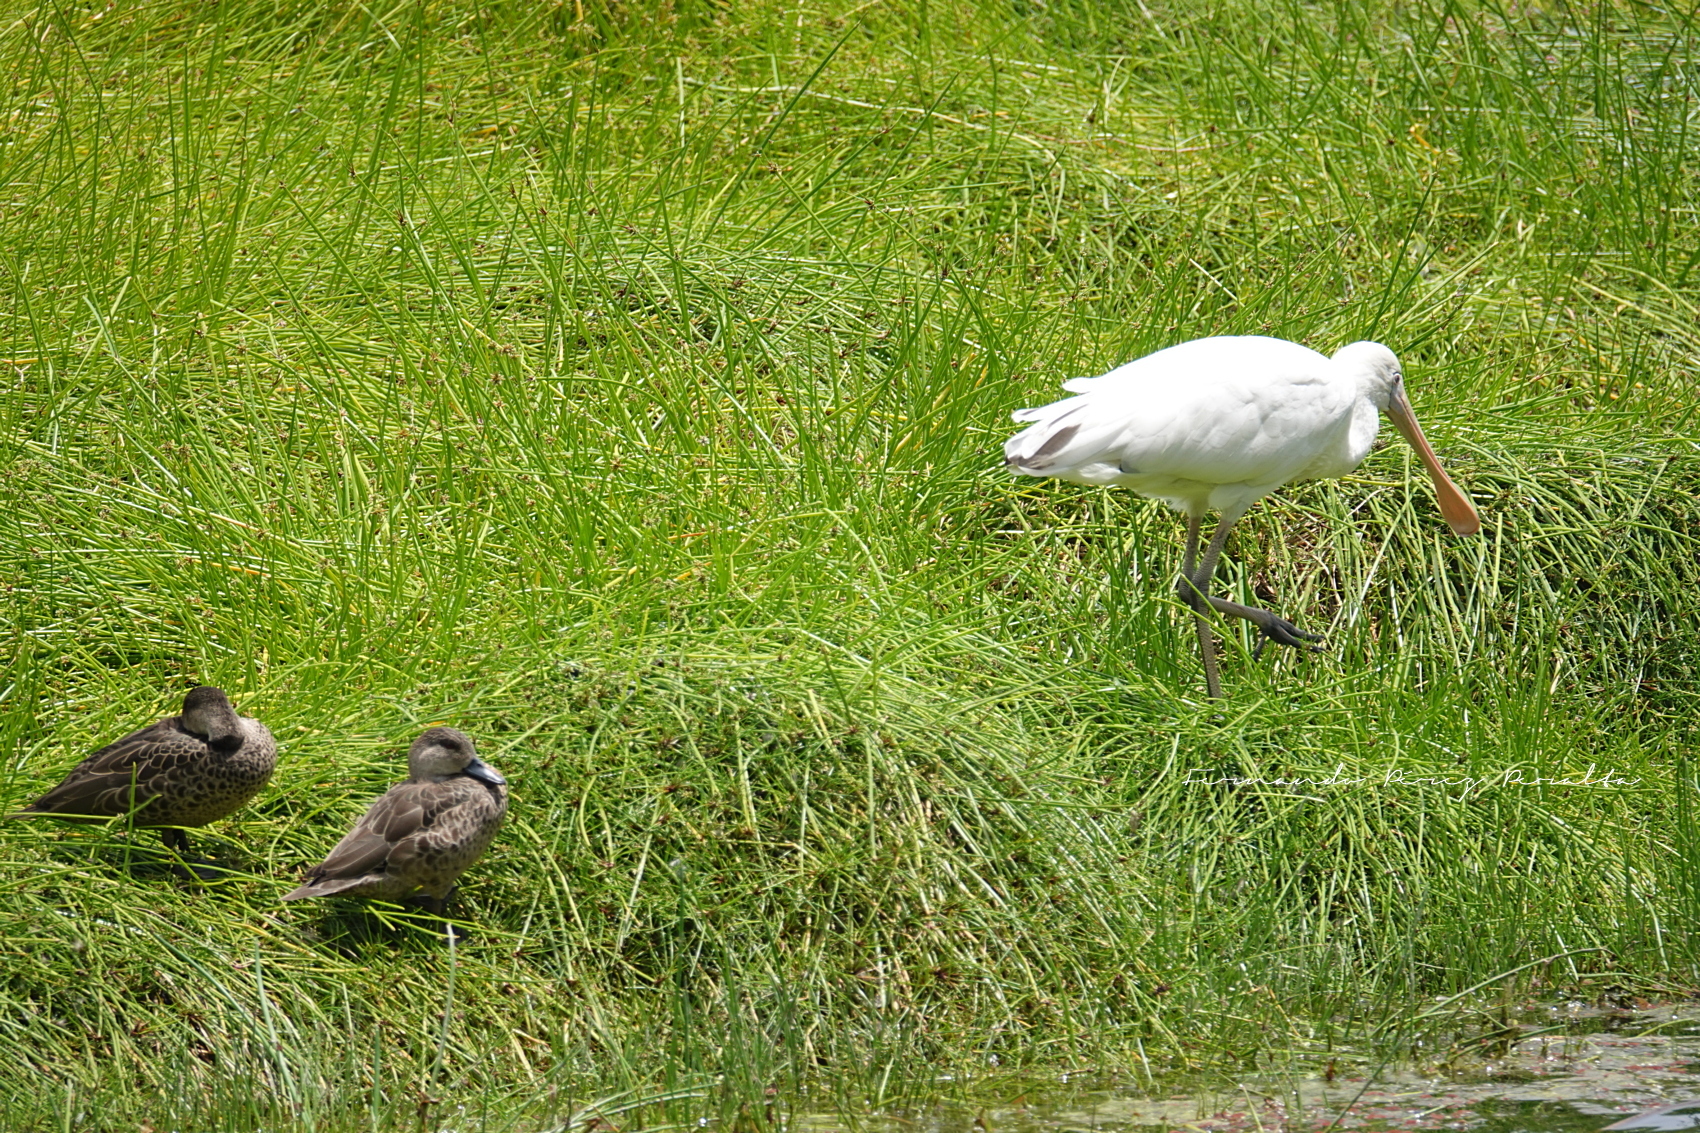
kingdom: Animalia
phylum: Chordata
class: Aves
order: Anseriformes
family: Anatidae
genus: Anas
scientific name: Anas gracilis
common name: Grey teal
